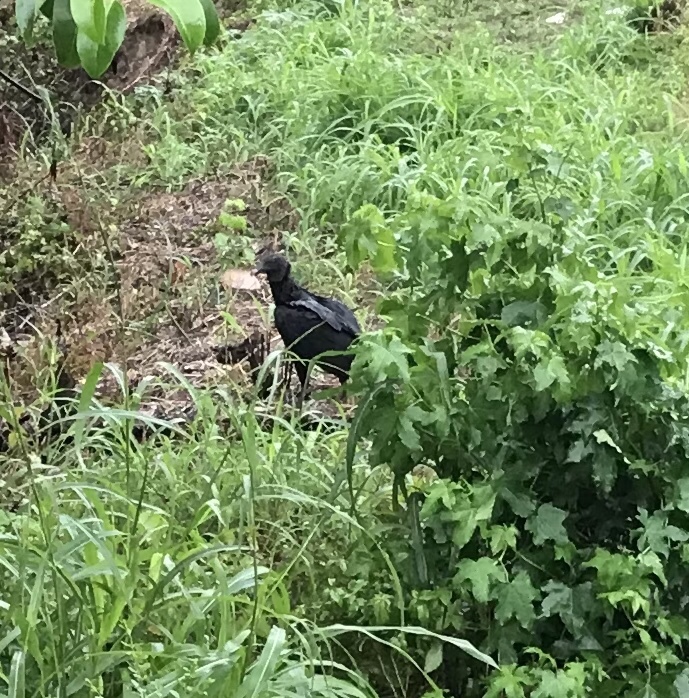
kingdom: Animalia
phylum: Chordata
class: Aves
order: Accipitriformes
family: Cathartidae
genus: Coragyps
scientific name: Coragyps atratus
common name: Black vulture
